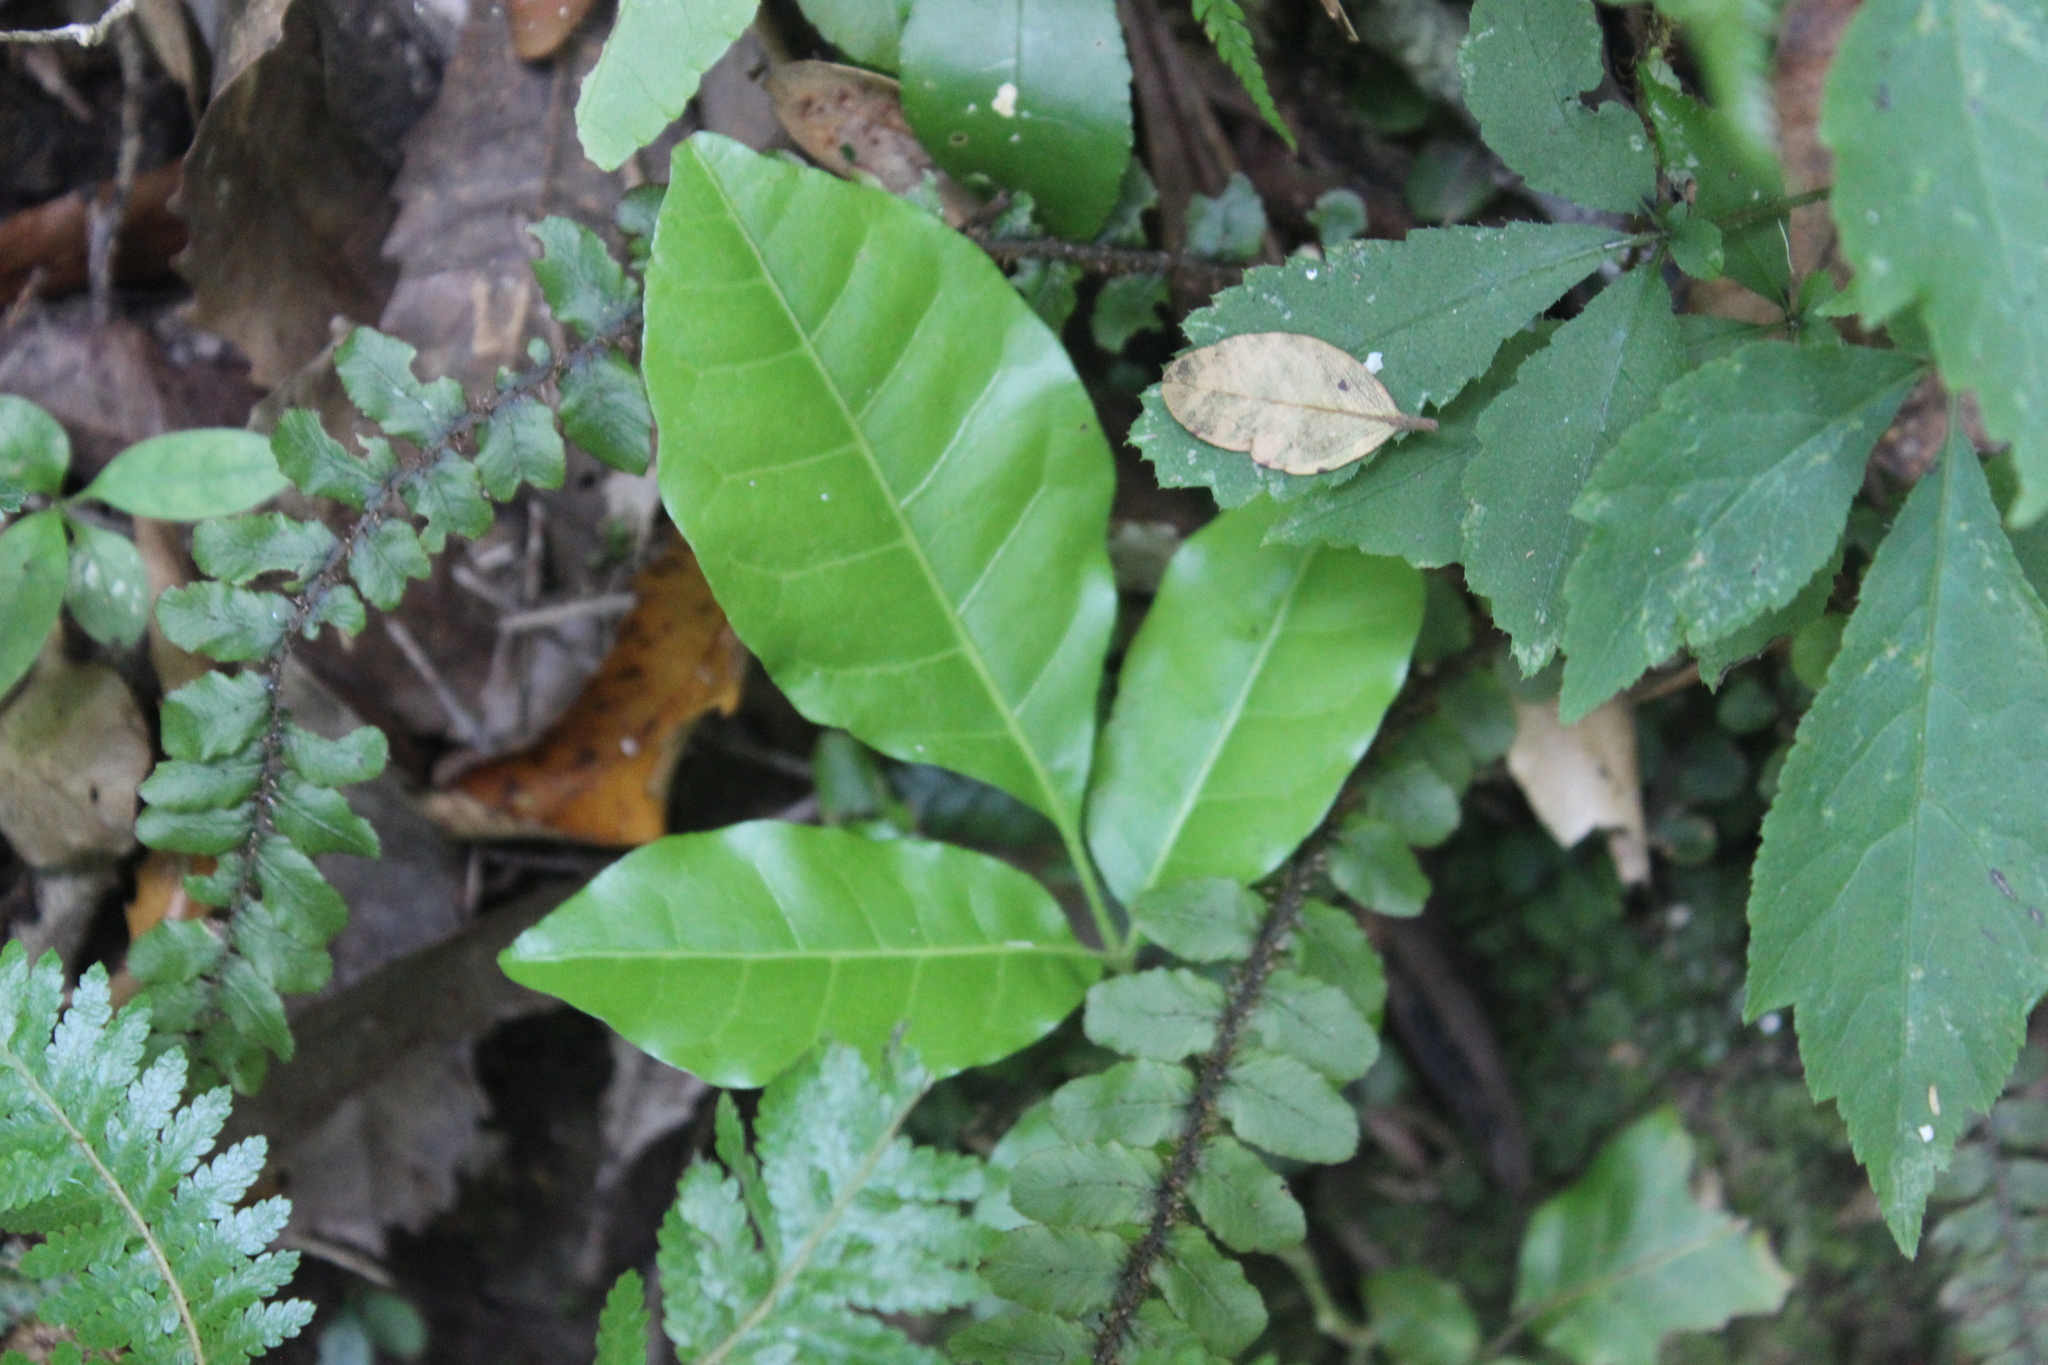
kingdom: Plantae
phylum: Tracheophyta
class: Magnoliopsida
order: Sapindales
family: Meliaceae
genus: Didymocheton
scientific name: Didymocheton spectabilis
